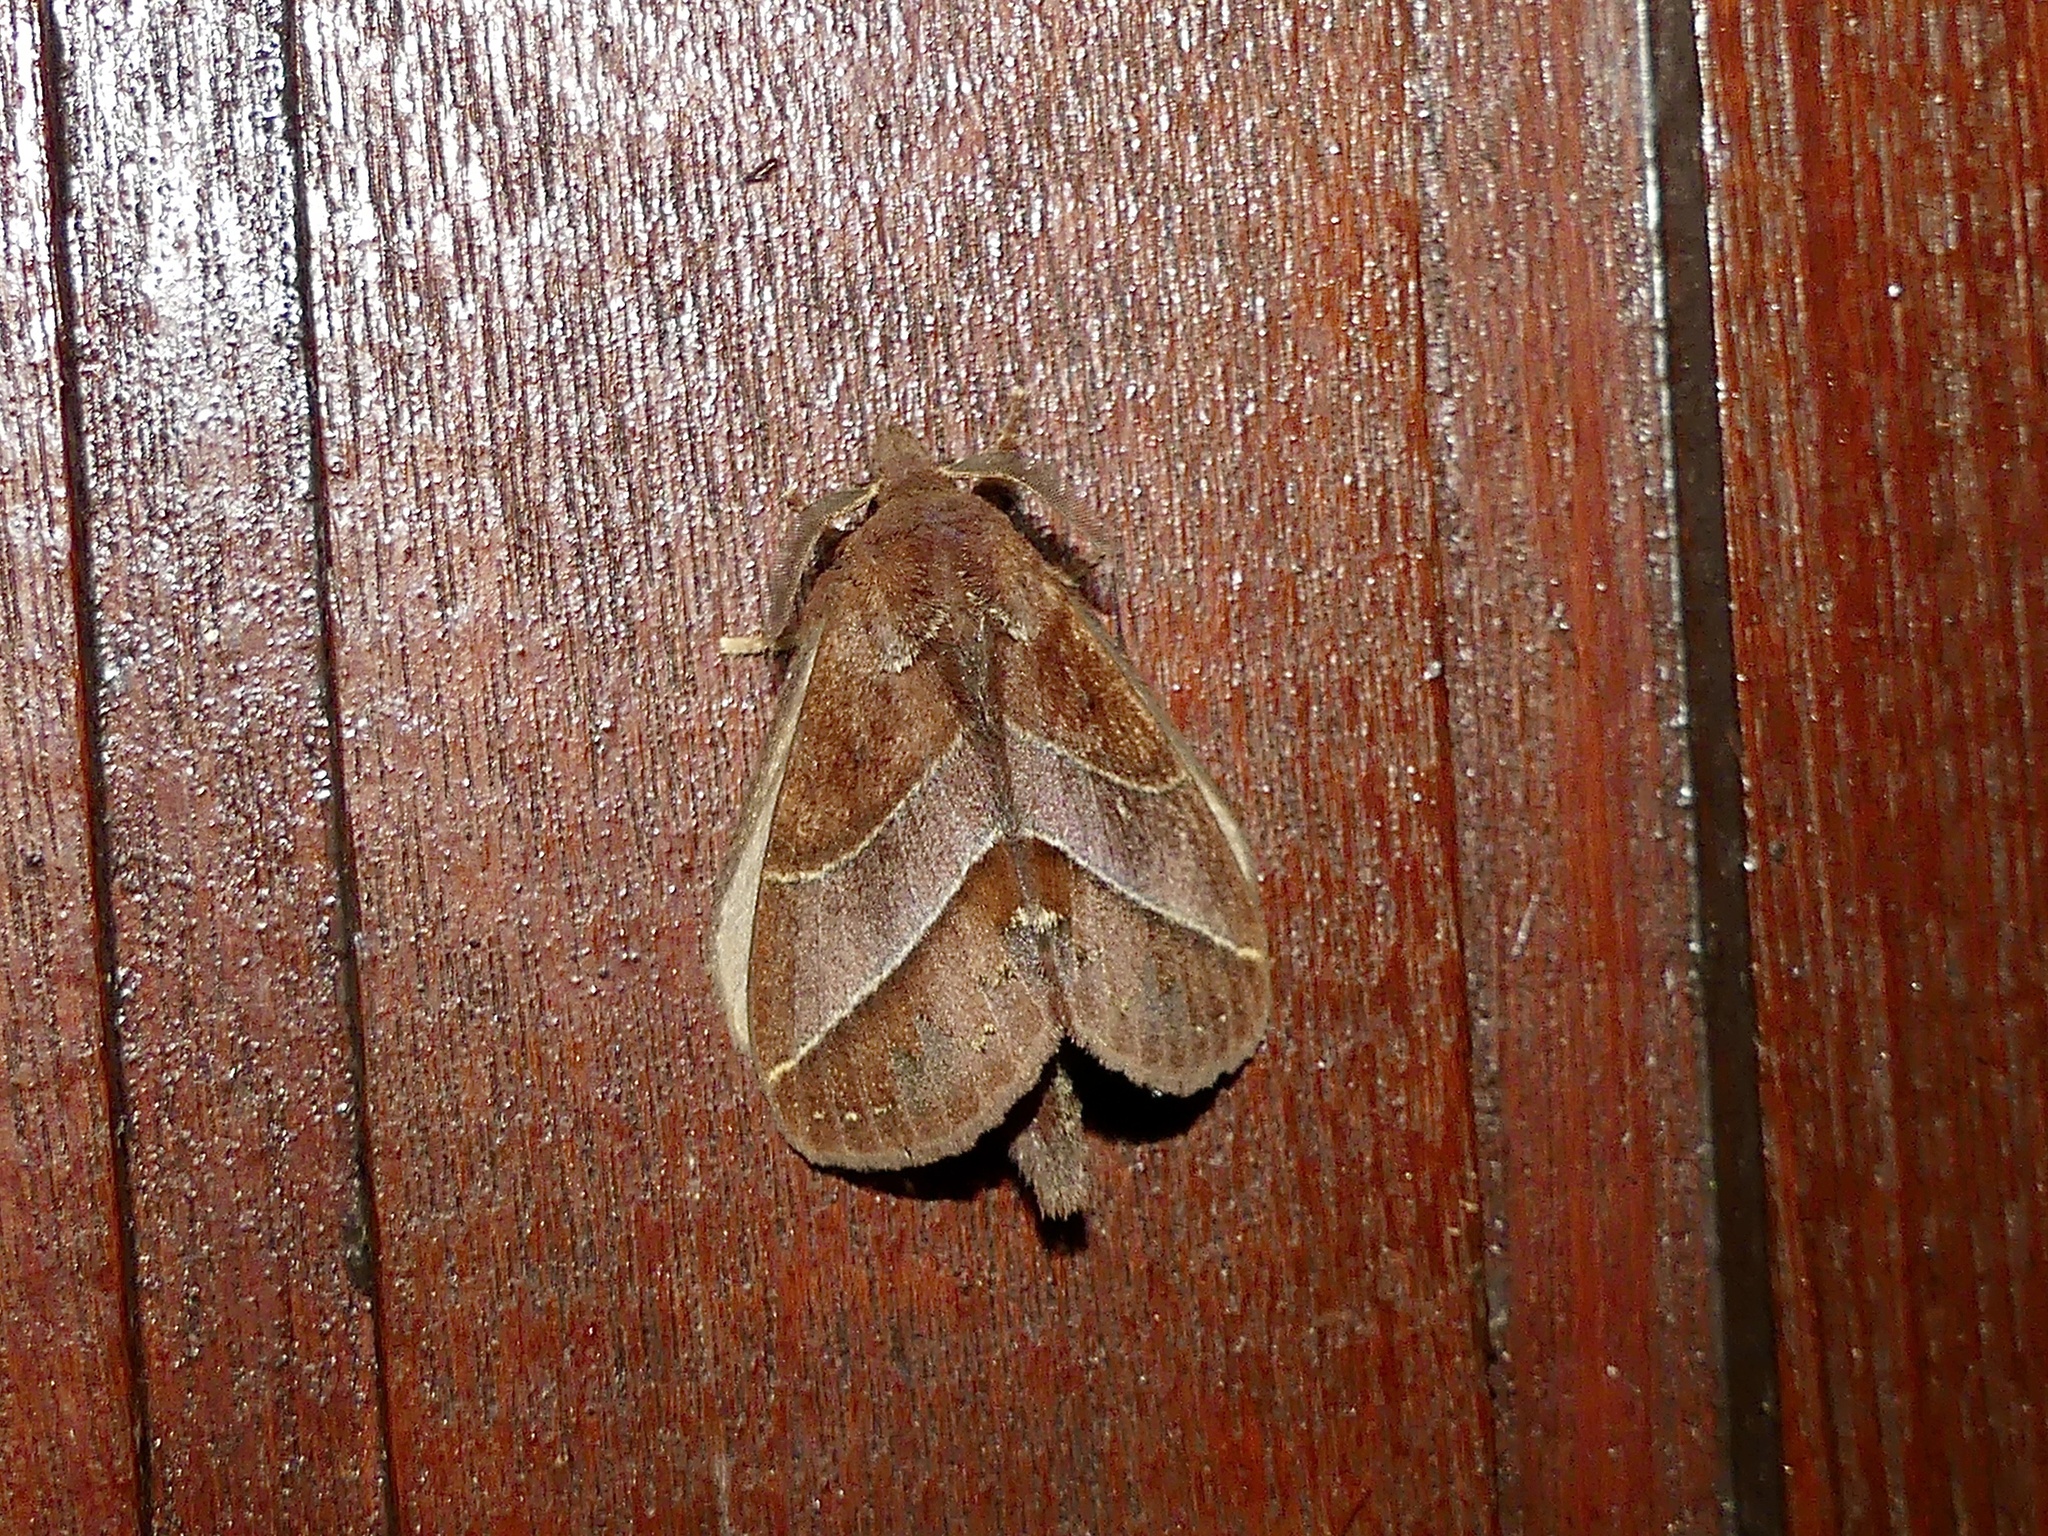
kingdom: Animalia
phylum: Arthropoda
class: Insecta
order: Lepidoptera
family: Lasiocampidae
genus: Lajonquierea
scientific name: Lajonquierea mediofasciata
